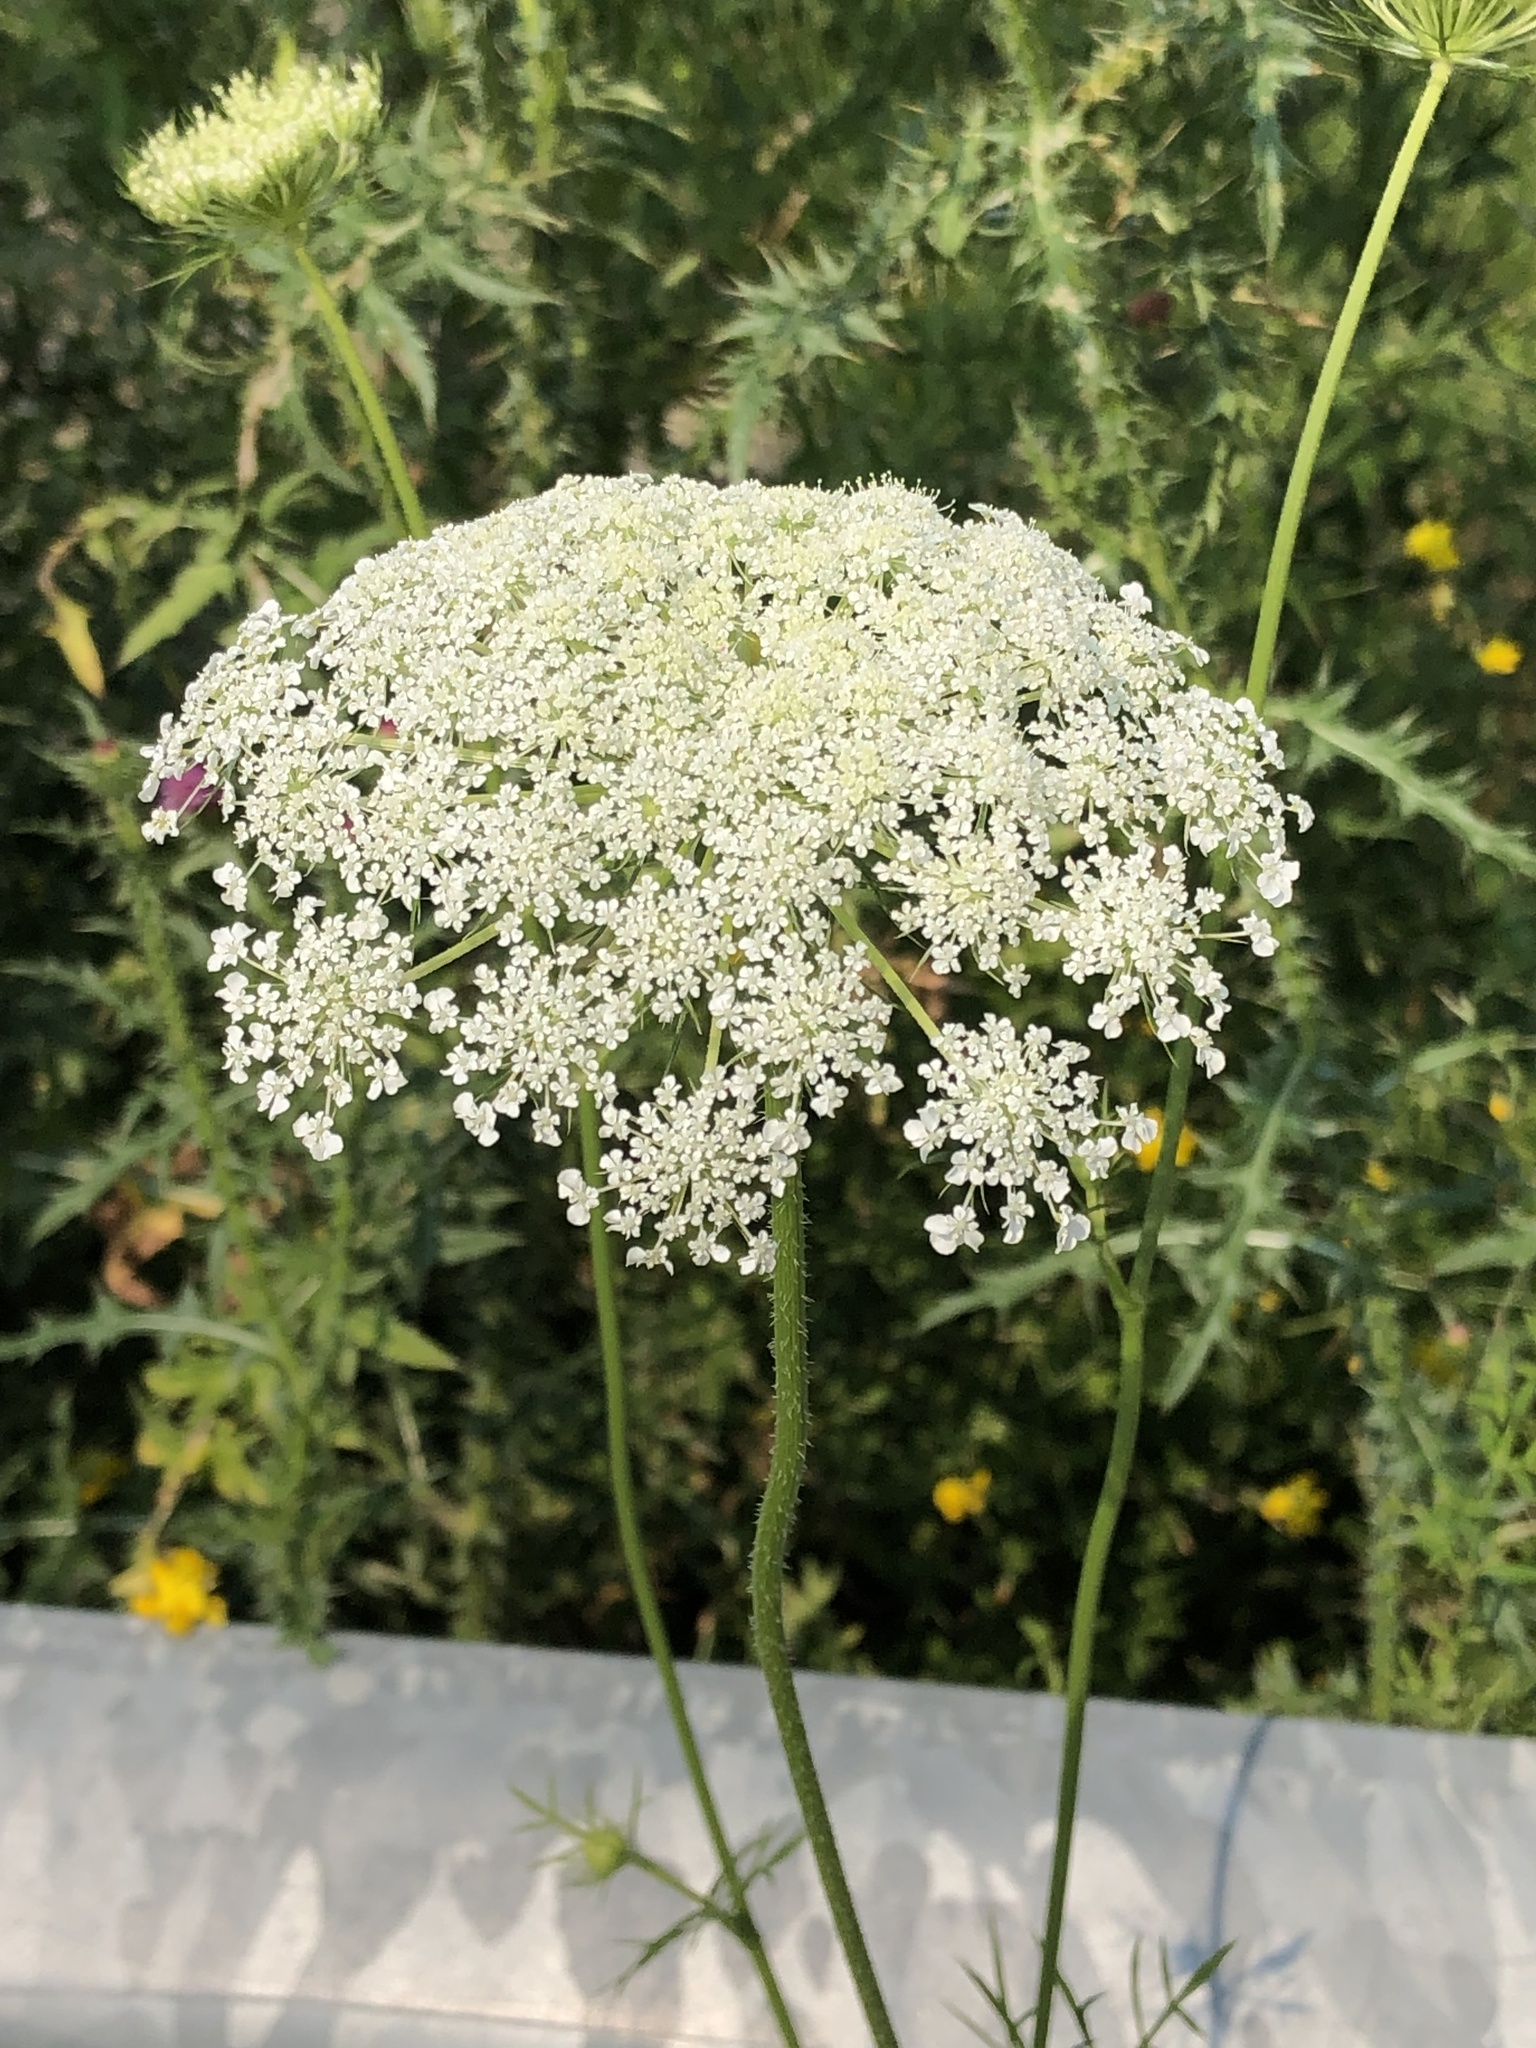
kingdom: Plantae
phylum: Tracheophyta
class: Magnoliopsida
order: Apiales
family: Apiaceae
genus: Daucus
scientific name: Daucus carota
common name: Wild carrot
